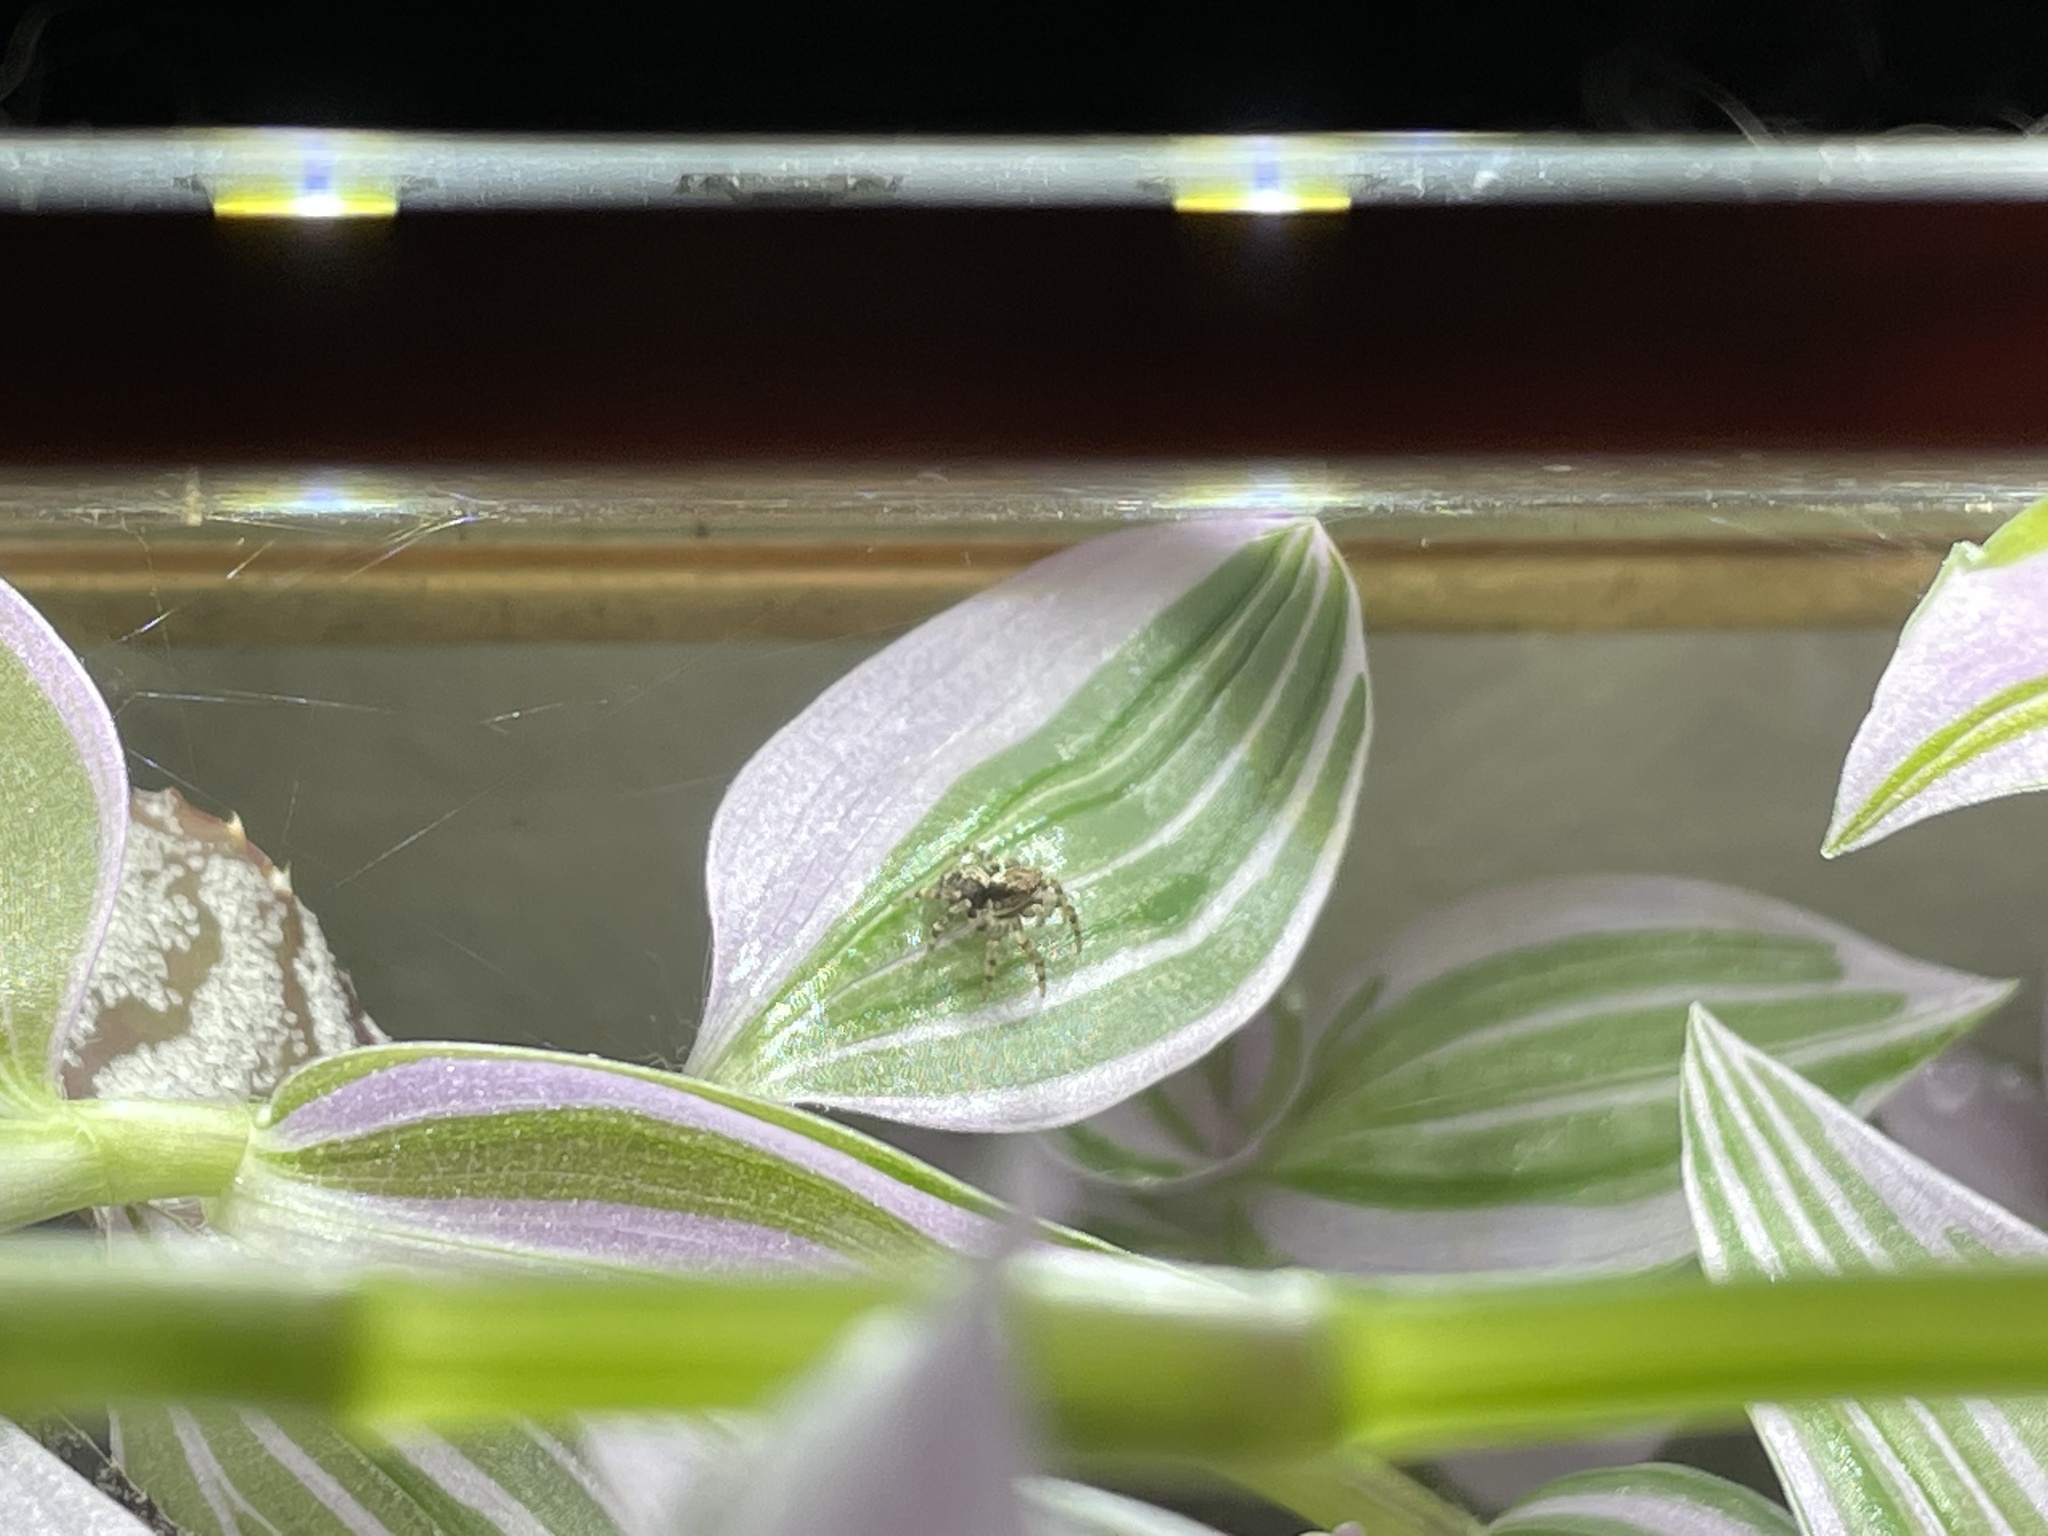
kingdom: Animalia
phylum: Arthropoda
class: Arachnida
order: Araneae
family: Salticidae
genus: Mexigonus
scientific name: Mexigonus morosus
